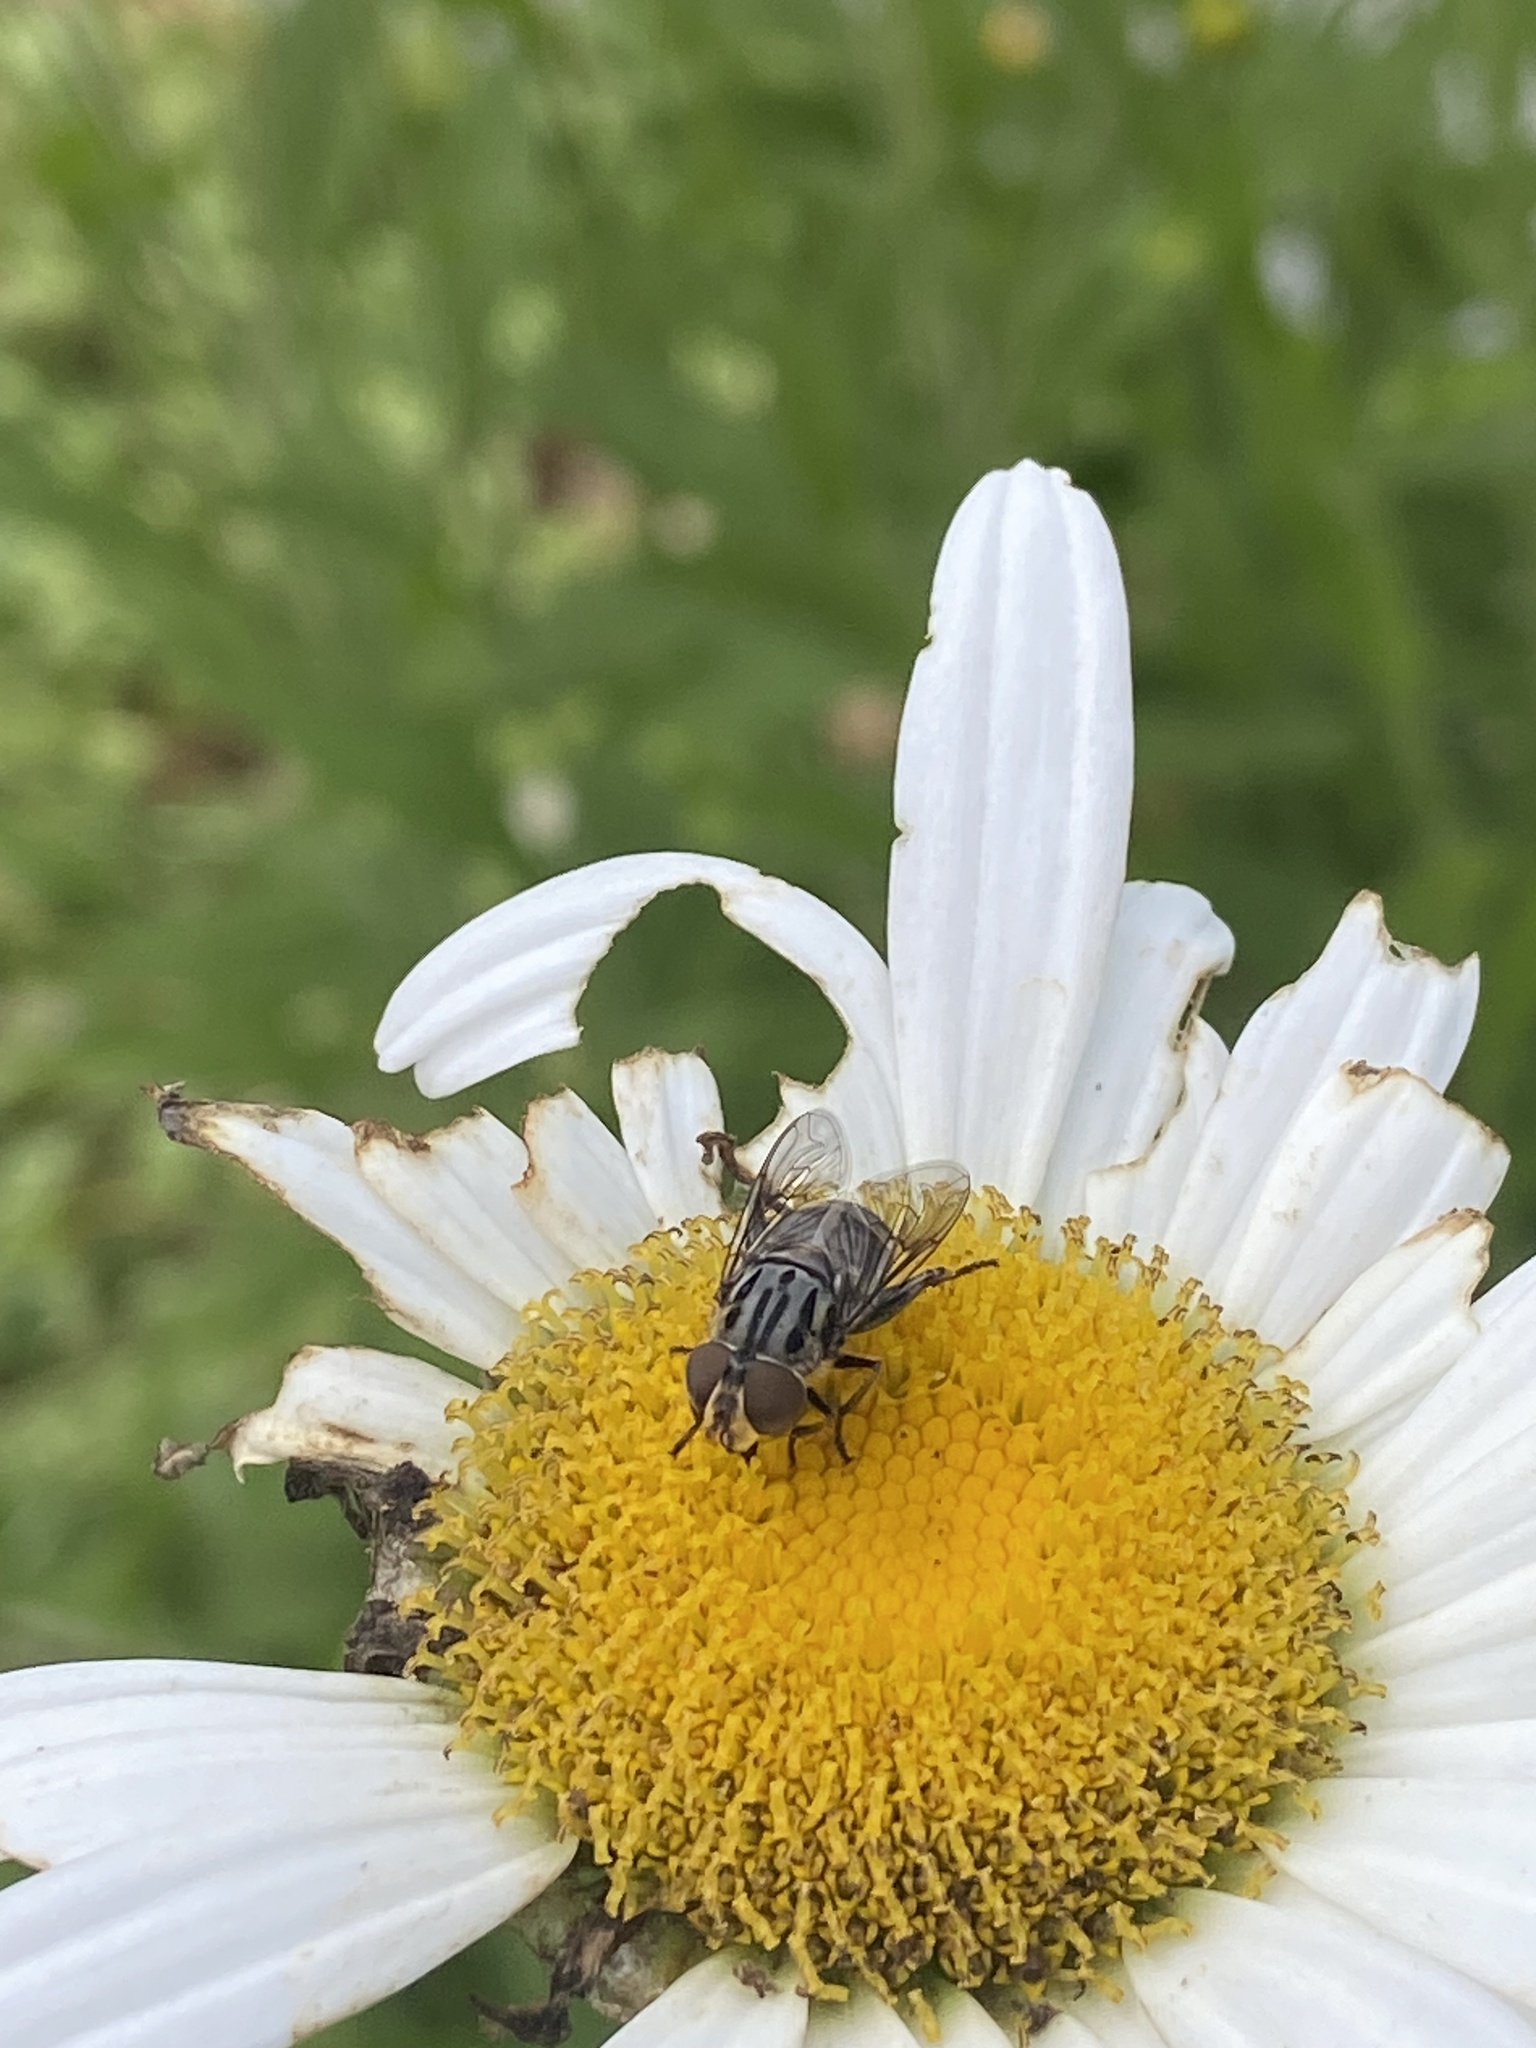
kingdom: Animalia
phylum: Arthropoda
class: Insecta
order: Diptera
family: Syrphidae
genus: Palpada
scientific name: Palpada furcata
